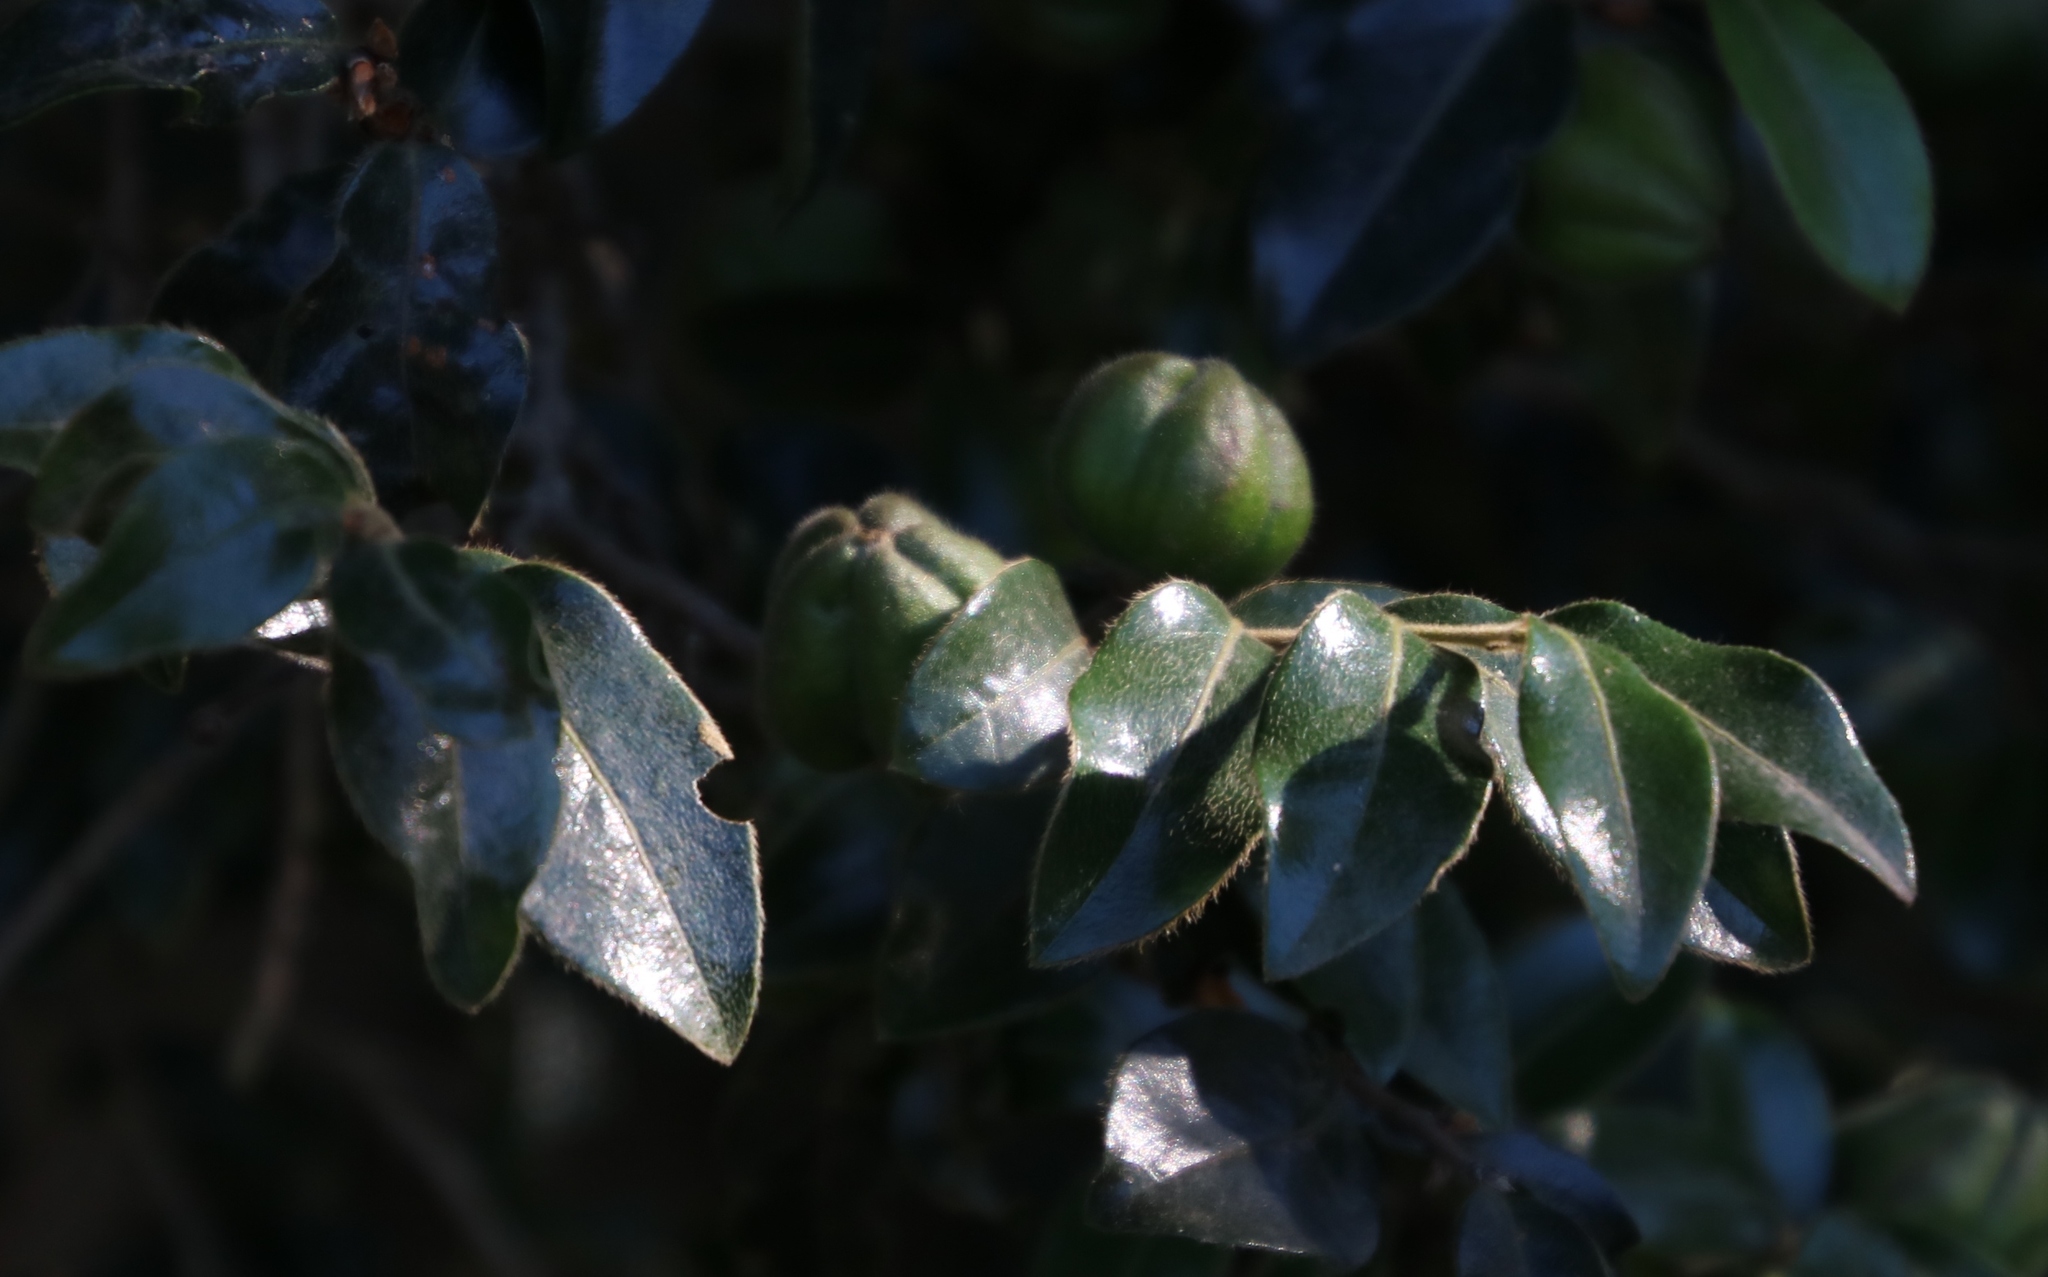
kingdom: Plantae
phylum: Tracheophyta
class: Magnoliopsida
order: Ericales
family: Ebenaceae
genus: Diospyros
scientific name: Diospyros whyteana
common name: Bladder-nut
